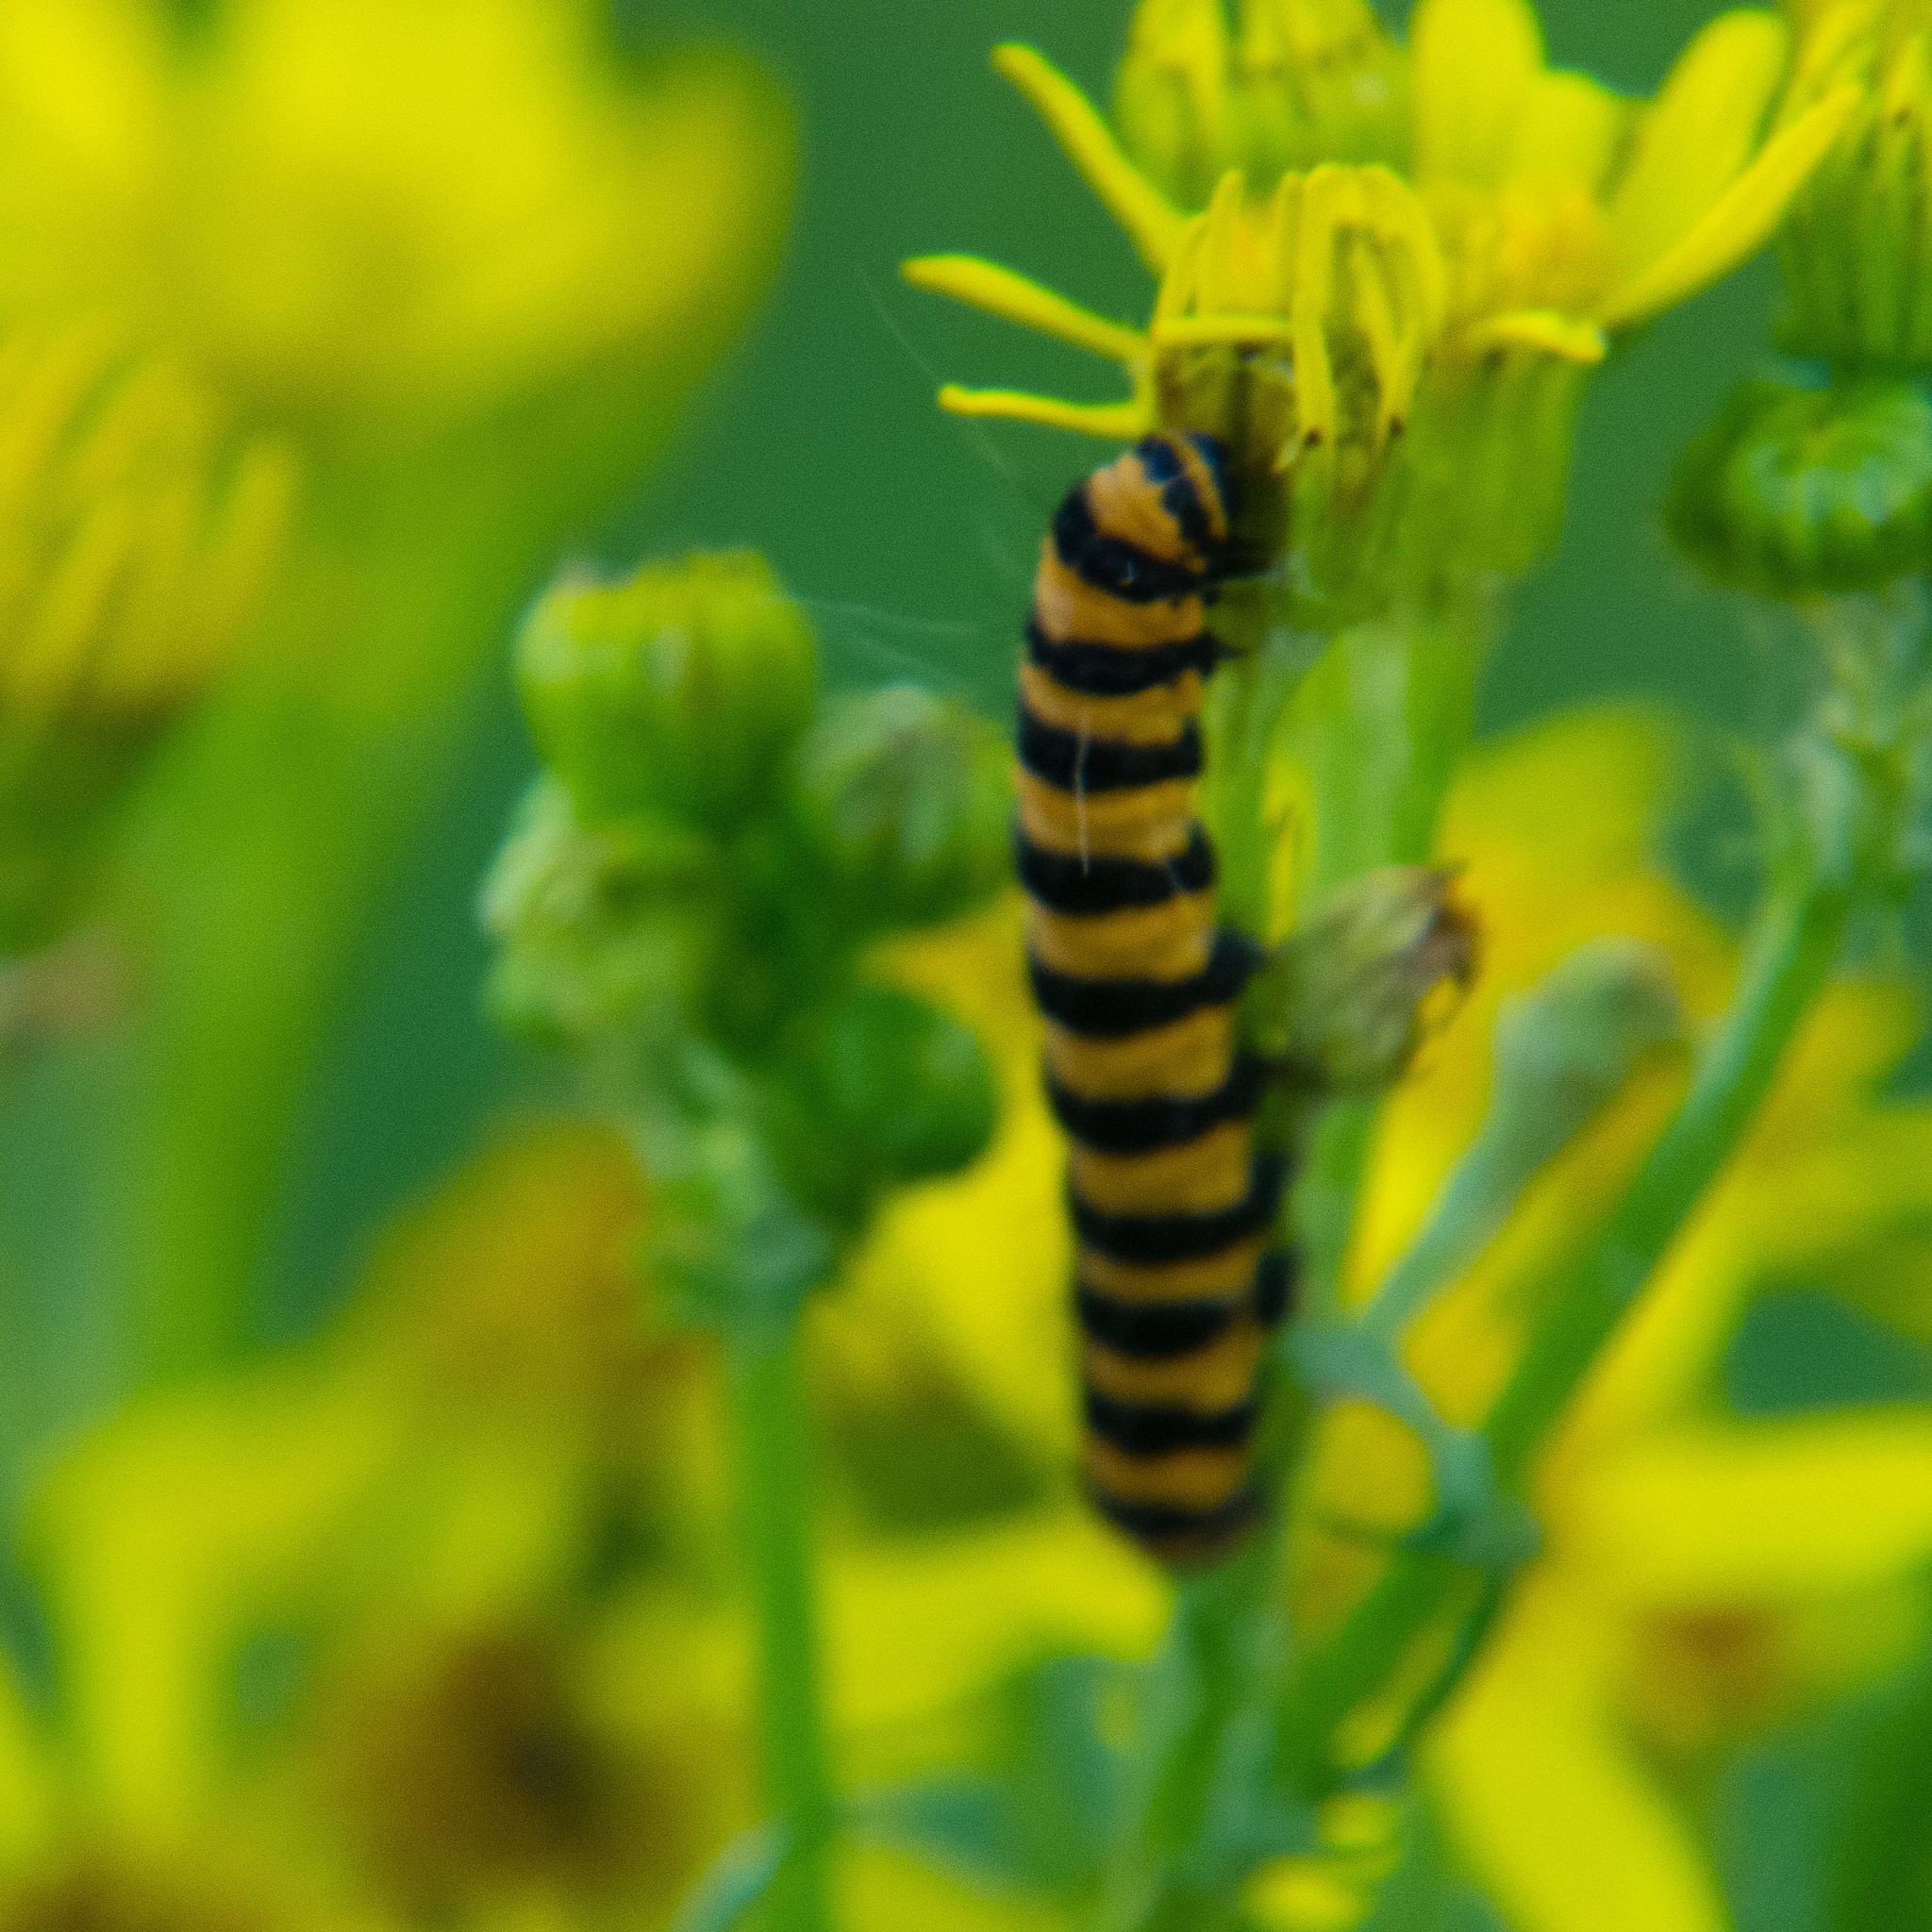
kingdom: Animalia
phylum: Arthropoda
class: Insecta
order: Lepidoptera
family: Erebidae
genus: Tyria
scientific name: Tyria jacobaeae
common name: Cinnabar
